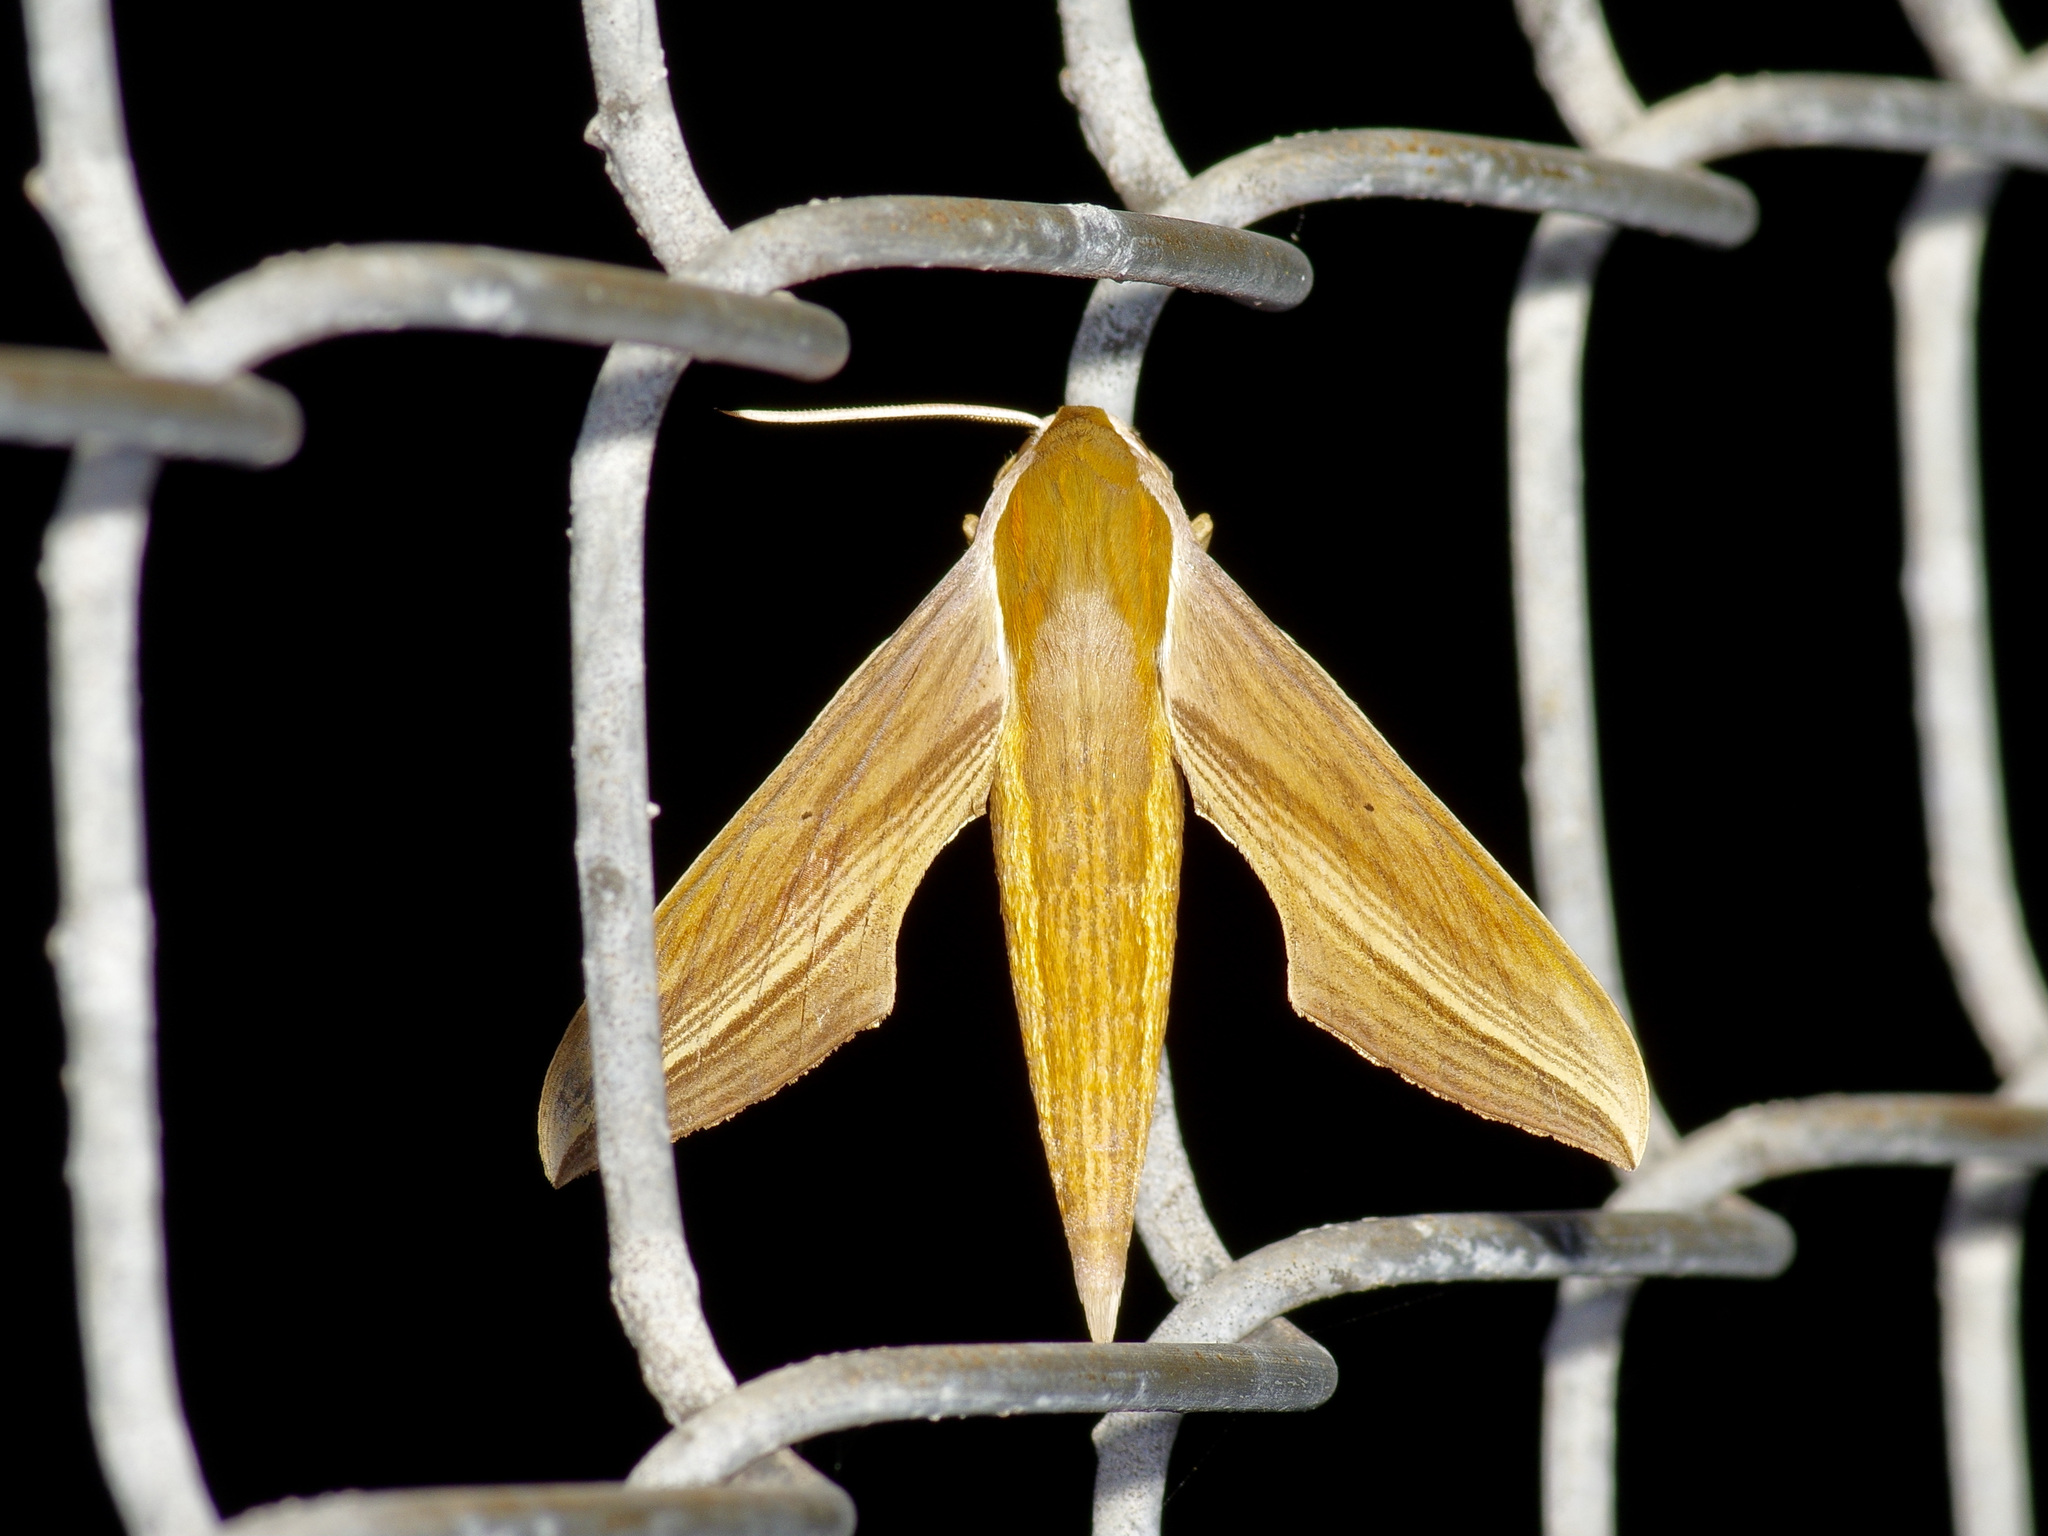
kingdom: Animalia
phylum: Arthropoda
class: Insecta
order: Lepidoptera
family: Sphingidae
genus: Xylophanes
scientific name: Xylophanes tersa
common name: Tersa sphinx
